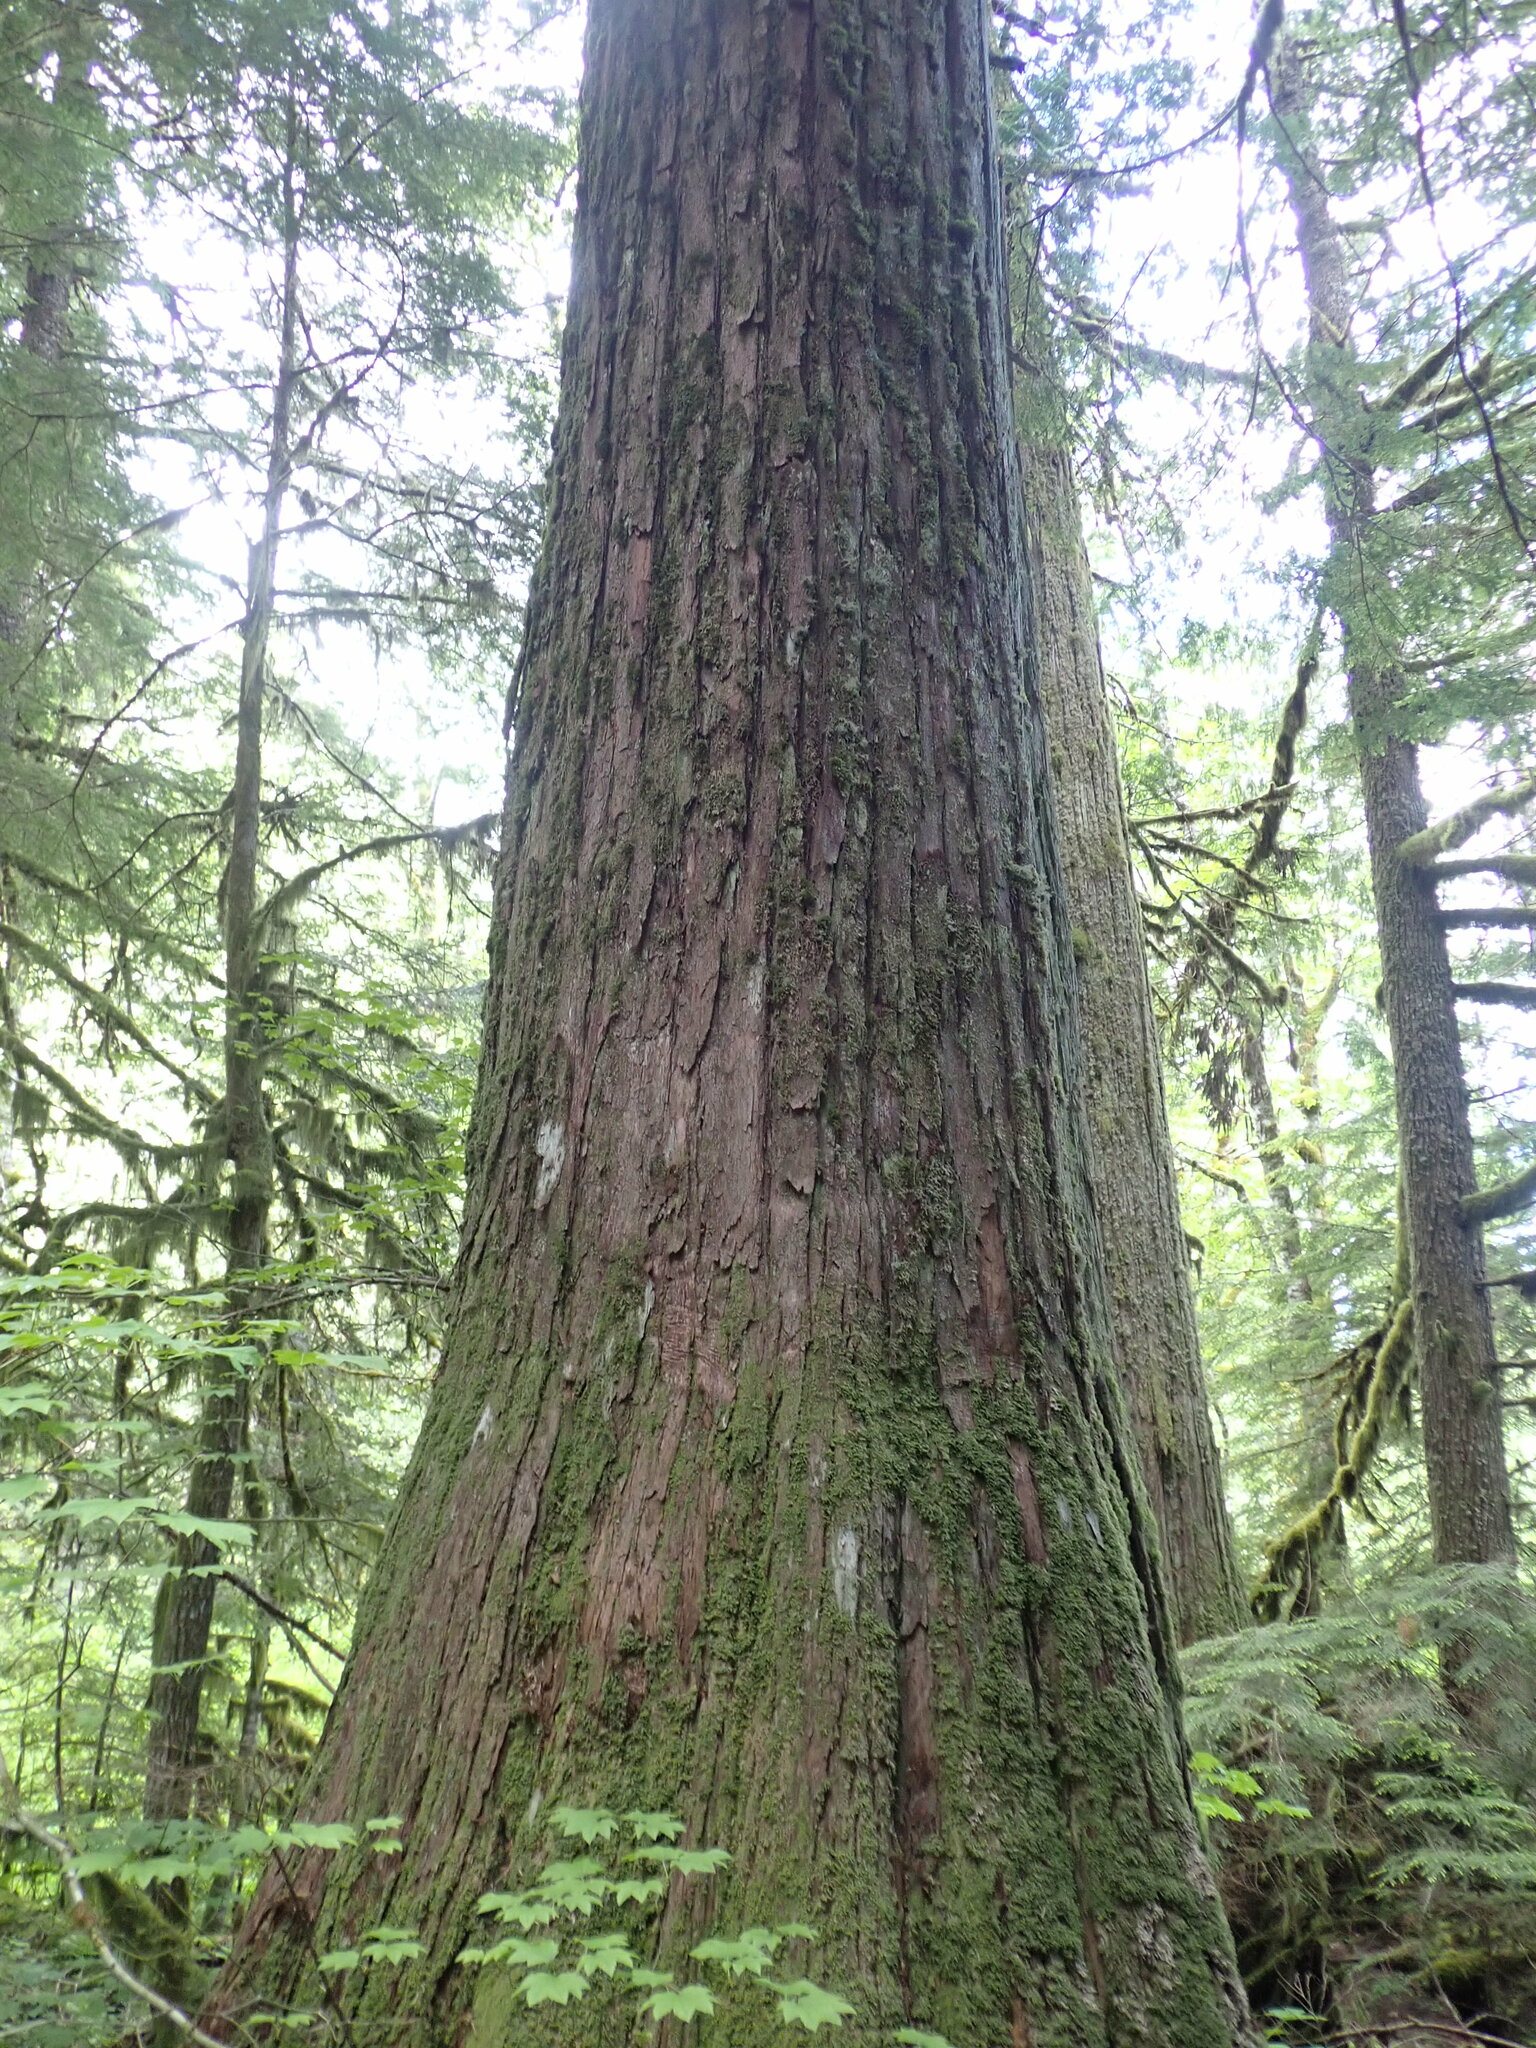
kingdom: Plantae
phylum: Tracheophyta
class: Pinopsida
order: Pinales
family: Cupressaceae
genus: Thuja
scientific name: Thuja plicata
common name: Western red-cedar
